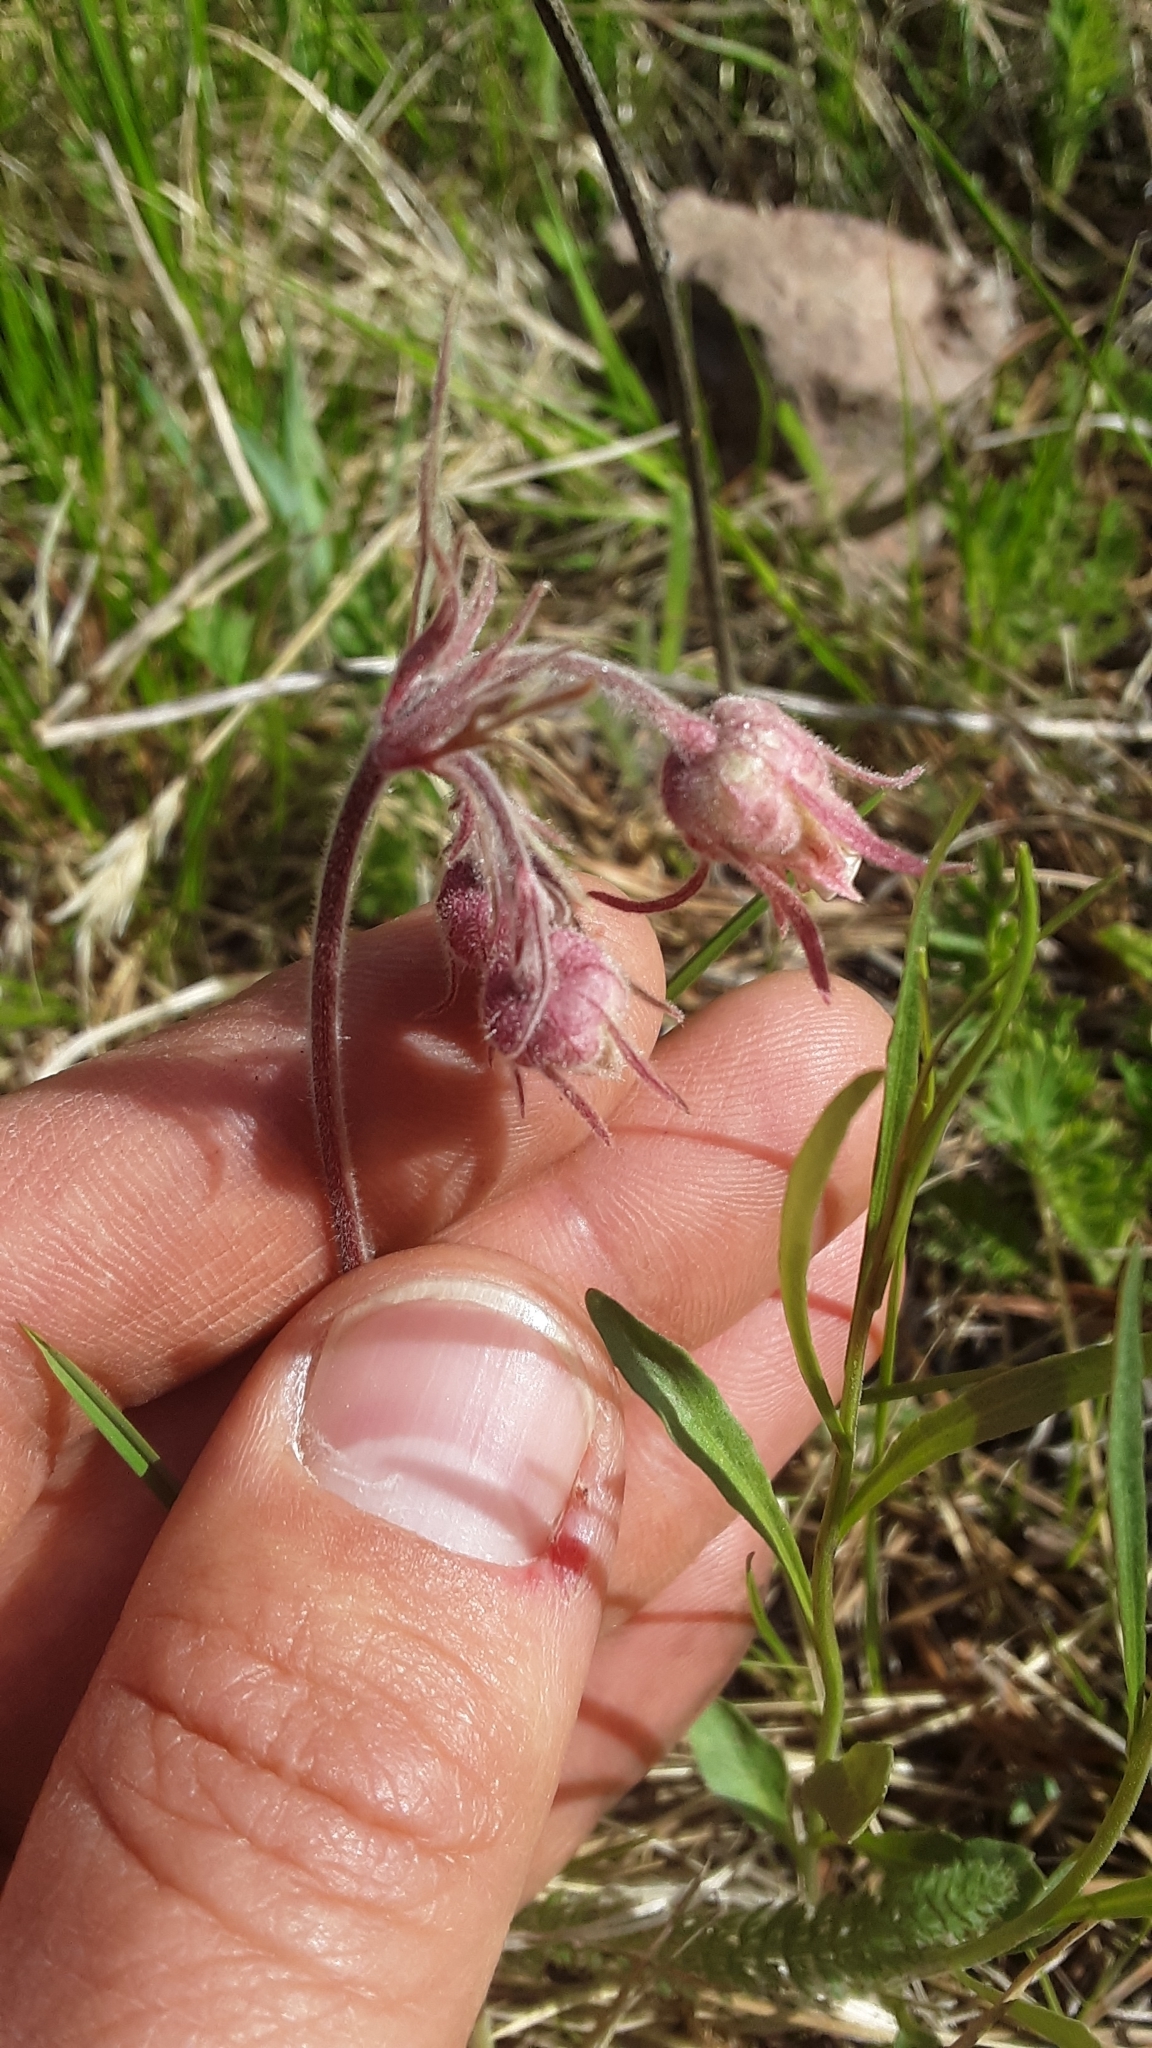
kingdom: Plantae
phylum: Tracheophyta
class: Magnoliopsida
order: Rosales
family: Rosaceae
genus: Geum
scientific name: Geum triflorum
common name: Old man's whiskers
